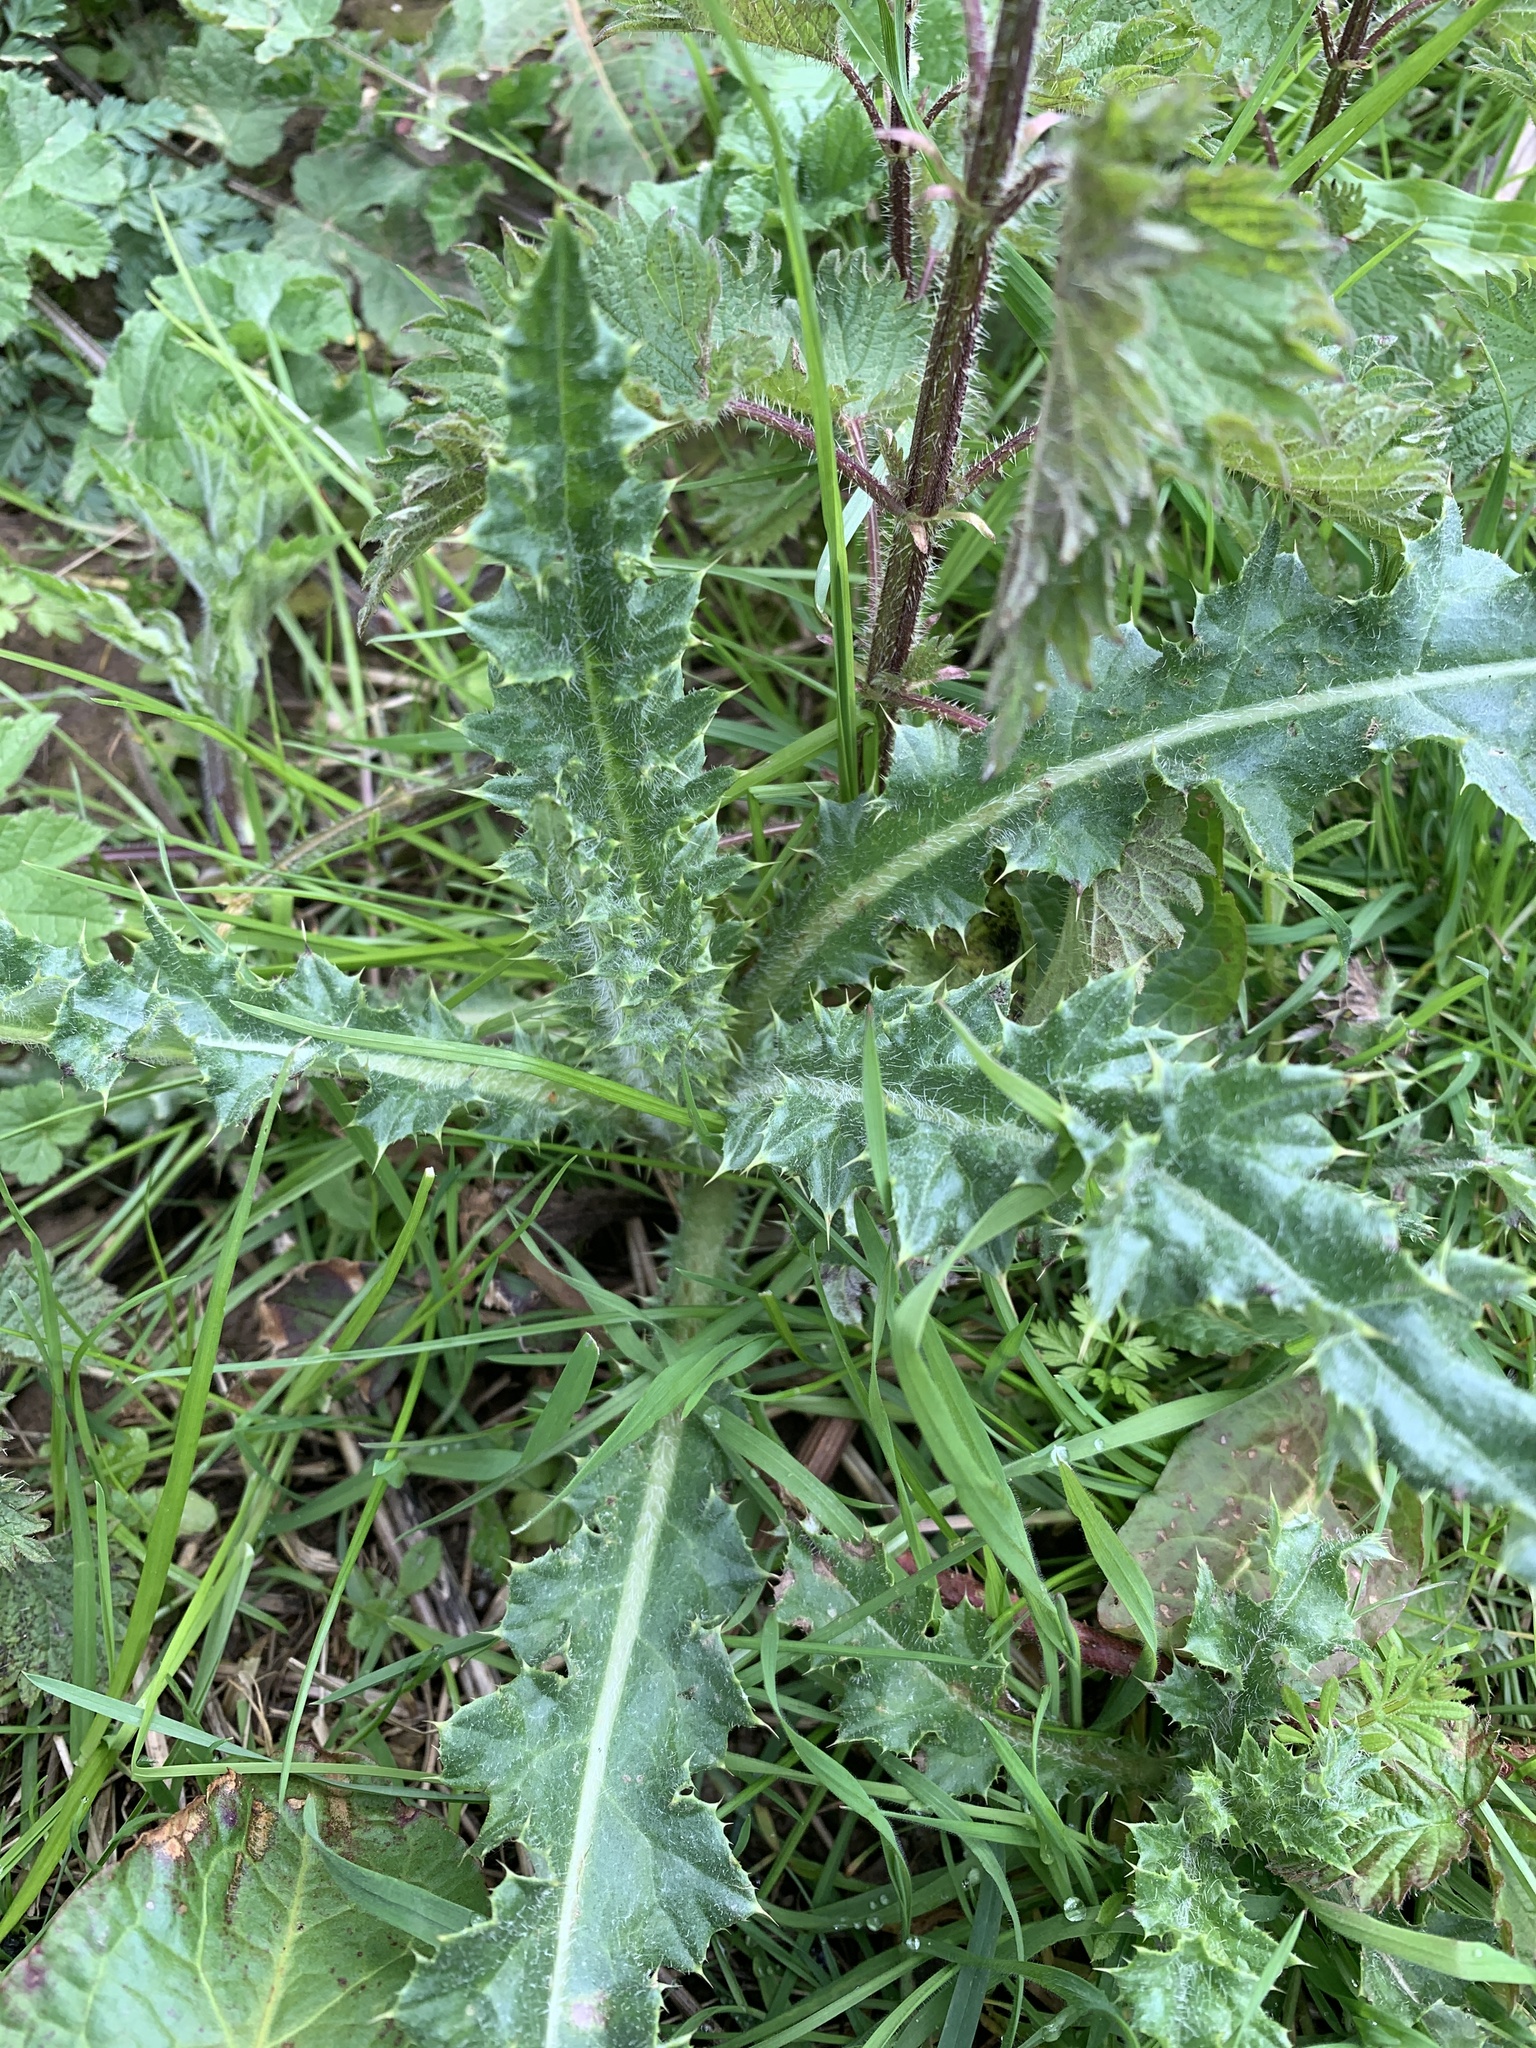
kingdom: Plantae
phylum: Tracheophyta
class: Magnoliopsida
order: Asterales
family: Asteraceae
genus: Cirsium
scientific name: Cirsium arvense
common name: Creeping thistle
